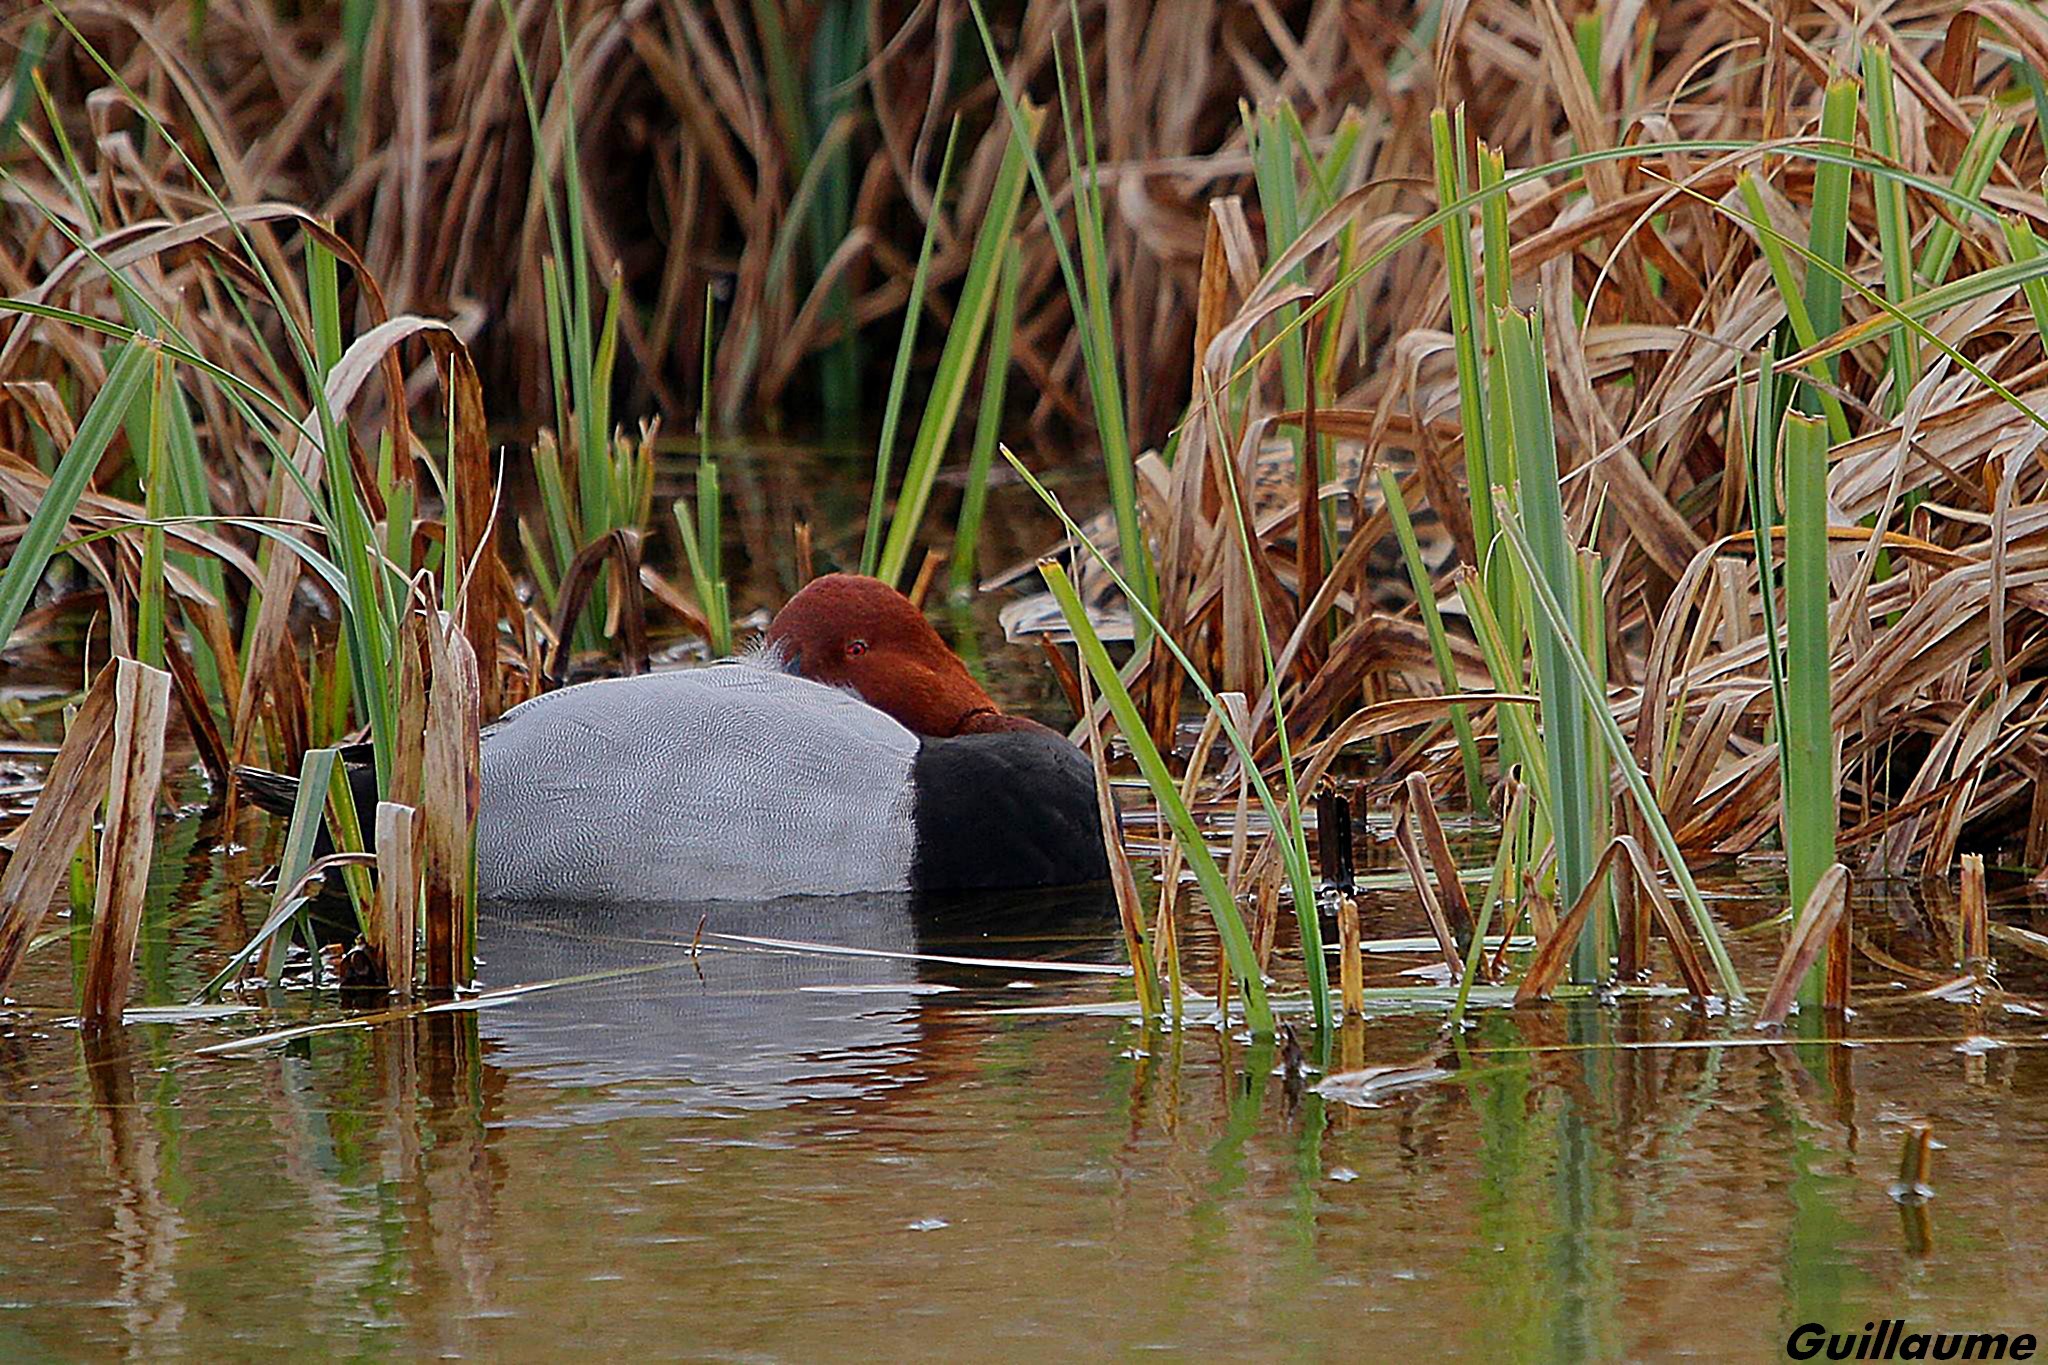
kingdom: Animalia
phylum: Chordata
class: Aves
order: Anseriformes
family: Anatidae
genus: Aythya
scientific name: Aythya ferina
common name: Common pochard
